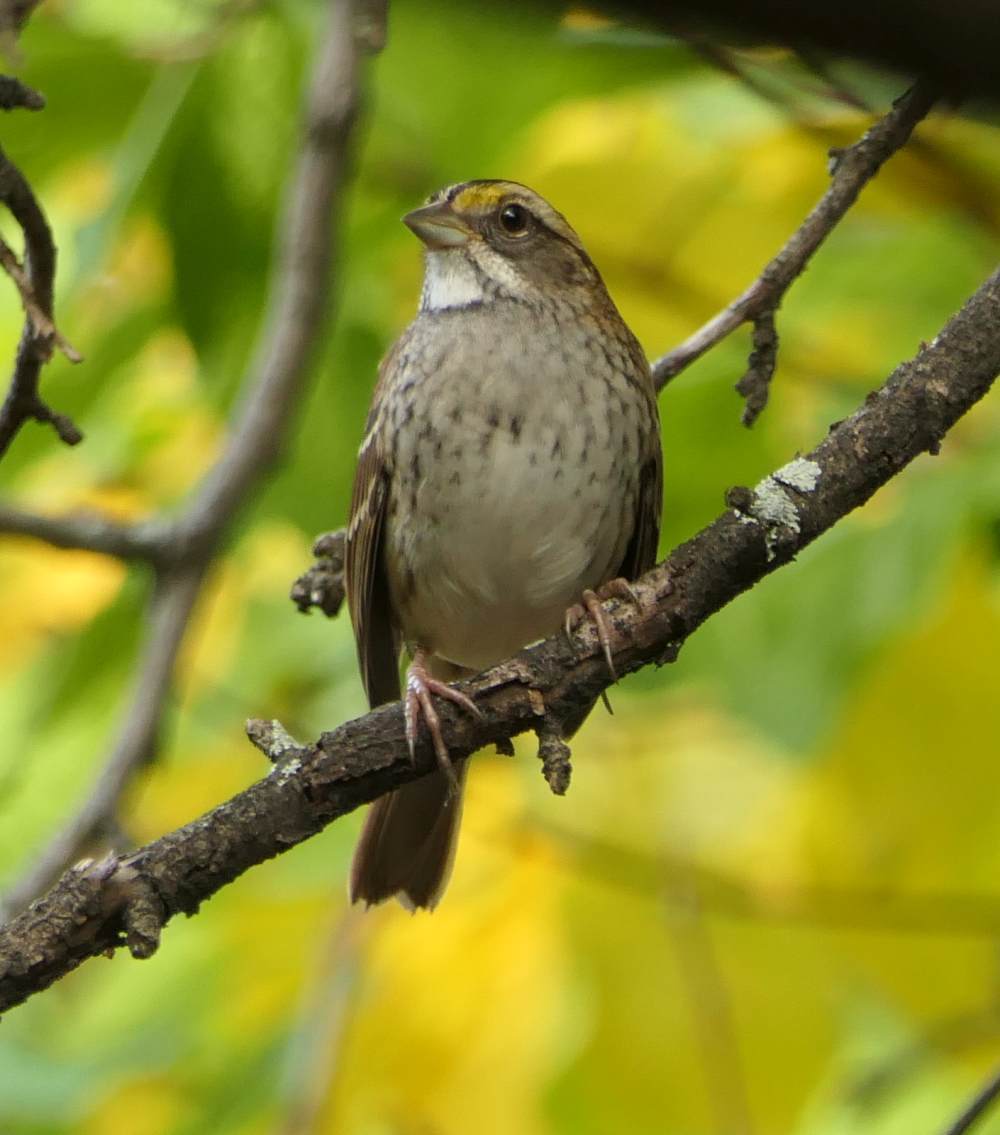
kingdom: Animalia
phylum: Chordata
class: Aves
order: Passeriformes
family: Passerellidae
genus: Zonotrichia
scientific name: Zonotrichia albicollis
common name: White-throated sparrow
